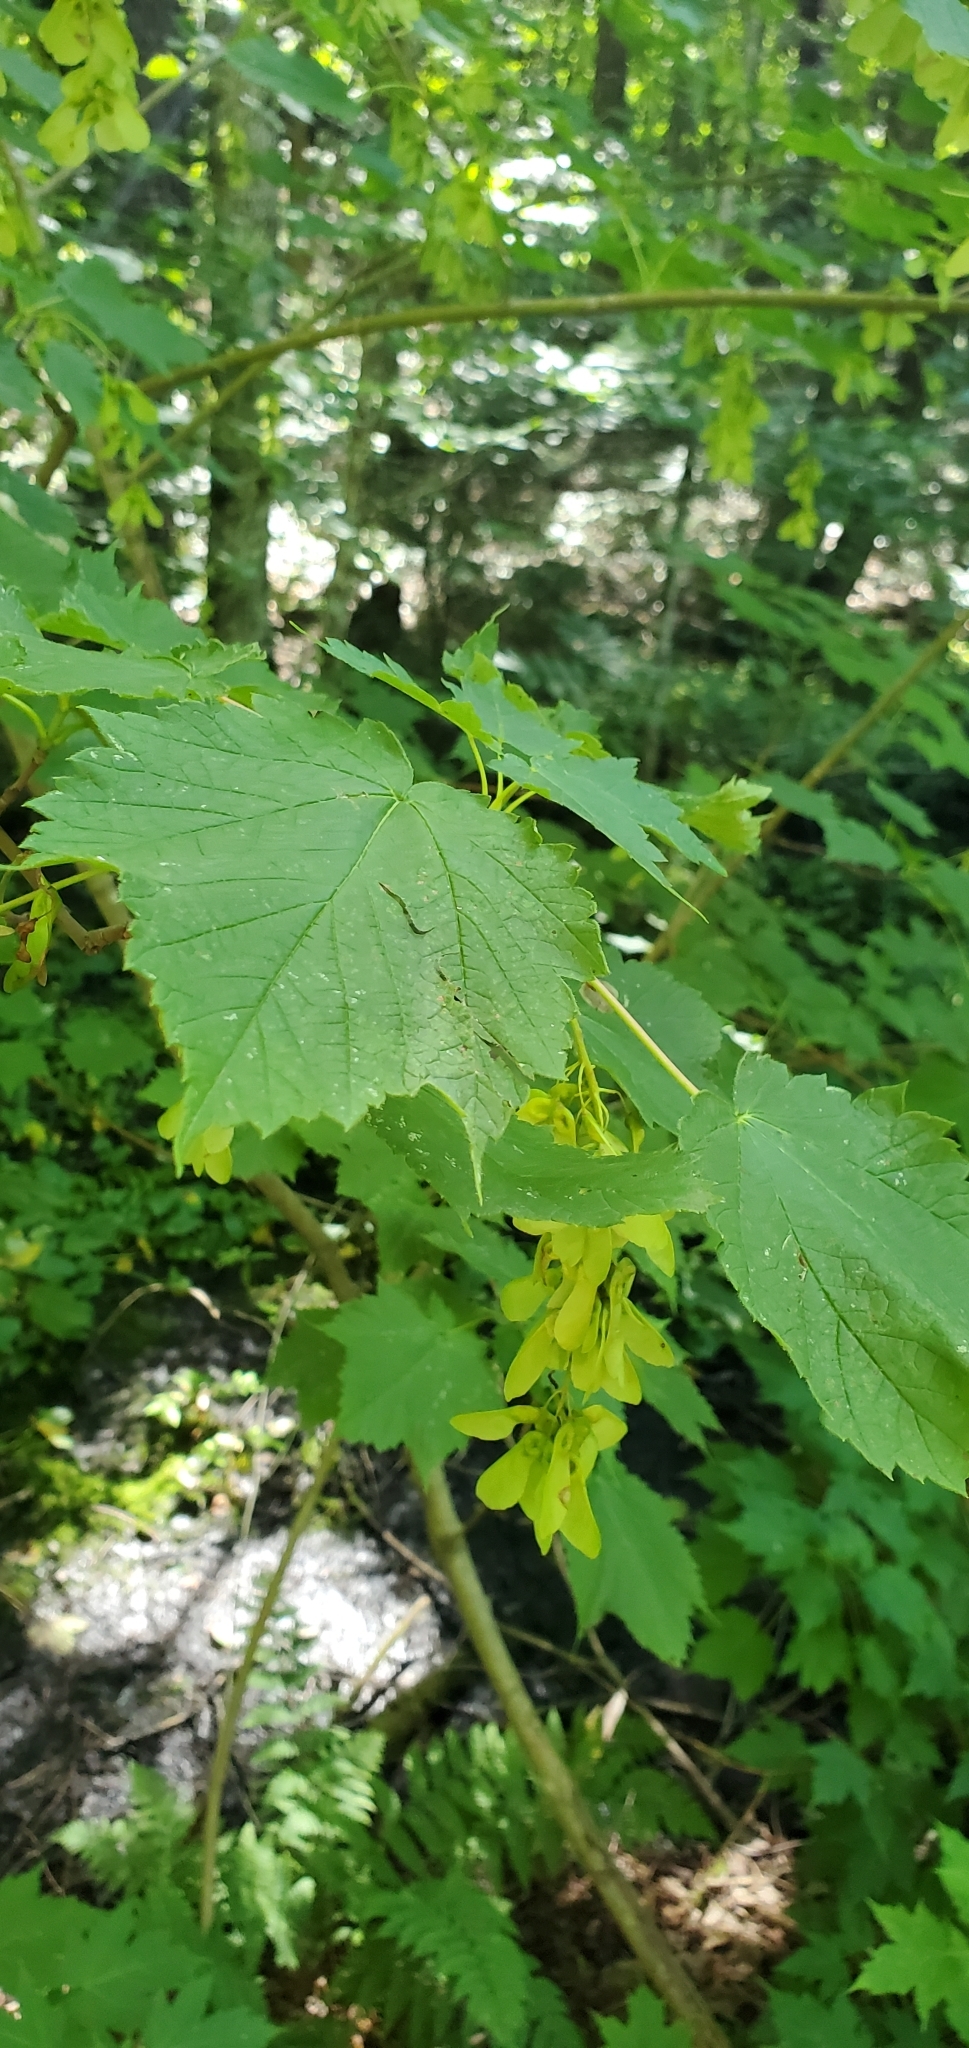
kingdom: Plantae
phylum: Tracheophyta
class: Magnoliopsida
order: Sapindales
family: Sapindaceae
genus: Acer
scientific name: Acer spicatum
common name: Mountain maple
